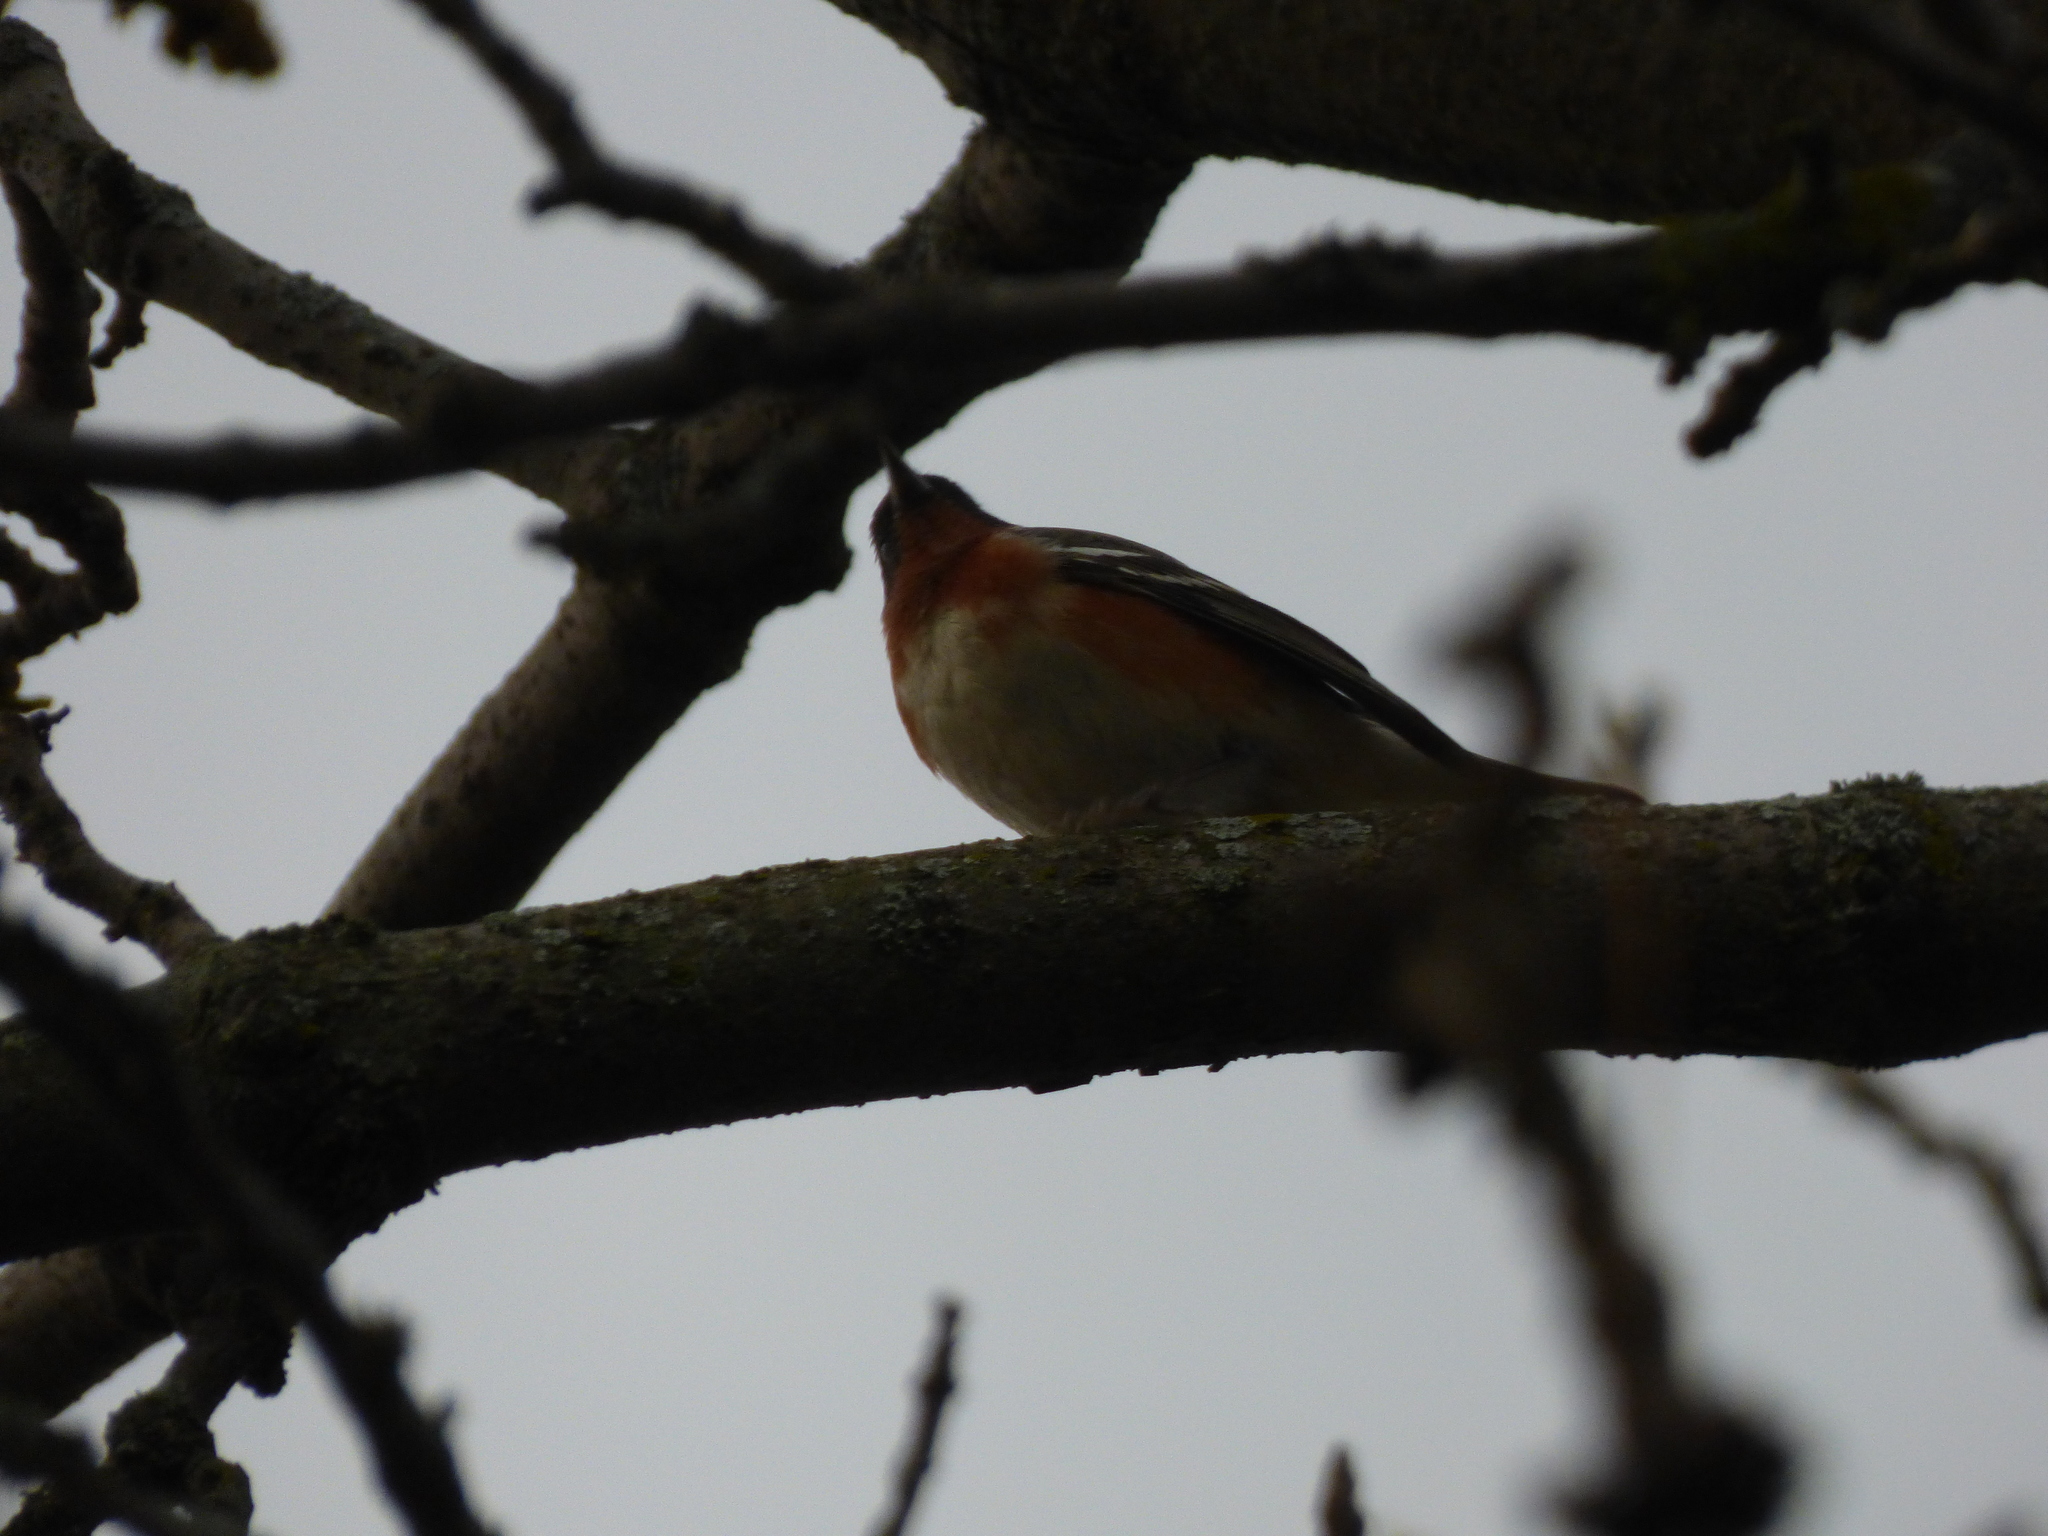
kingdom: Animalia
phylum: Chordata
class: Aves
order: Passeriformes
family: Parulidae
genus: Setophaga
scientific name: Setophaga castanea
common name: Bay-breasted warbler
